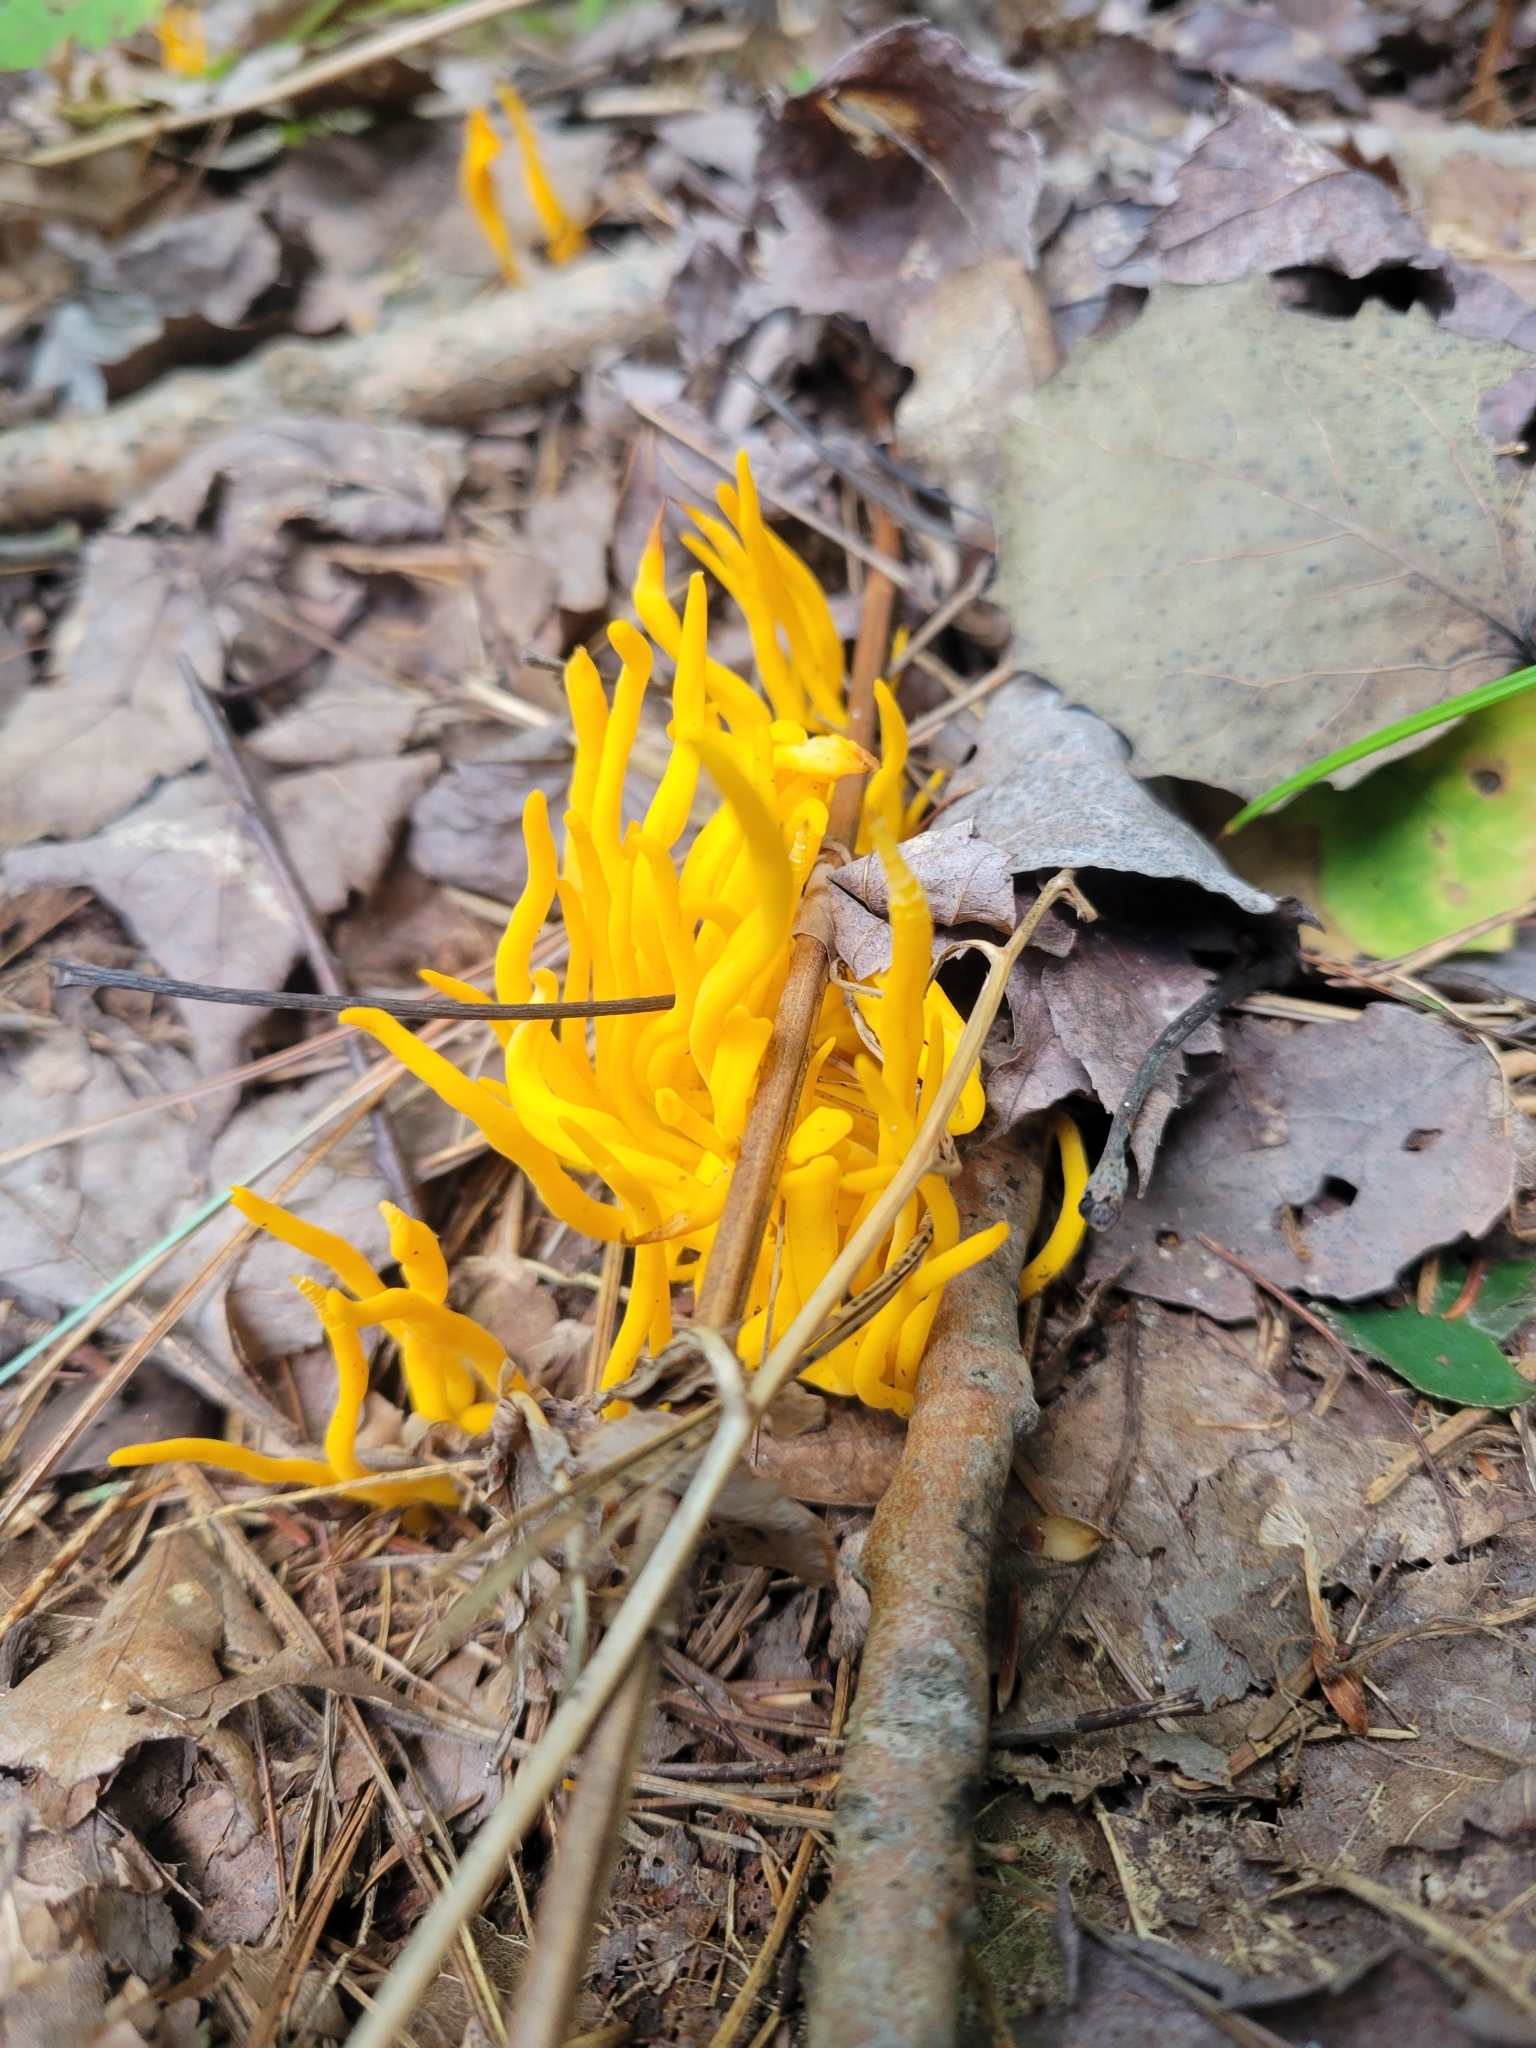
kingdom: Fungi
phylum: Basidiomycota
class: Agaricomycetes
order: Agaricales
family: Clavariaceae
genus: Clavulinopsis
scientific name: Clavulinopsis fusiformis
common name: Golden spindles
